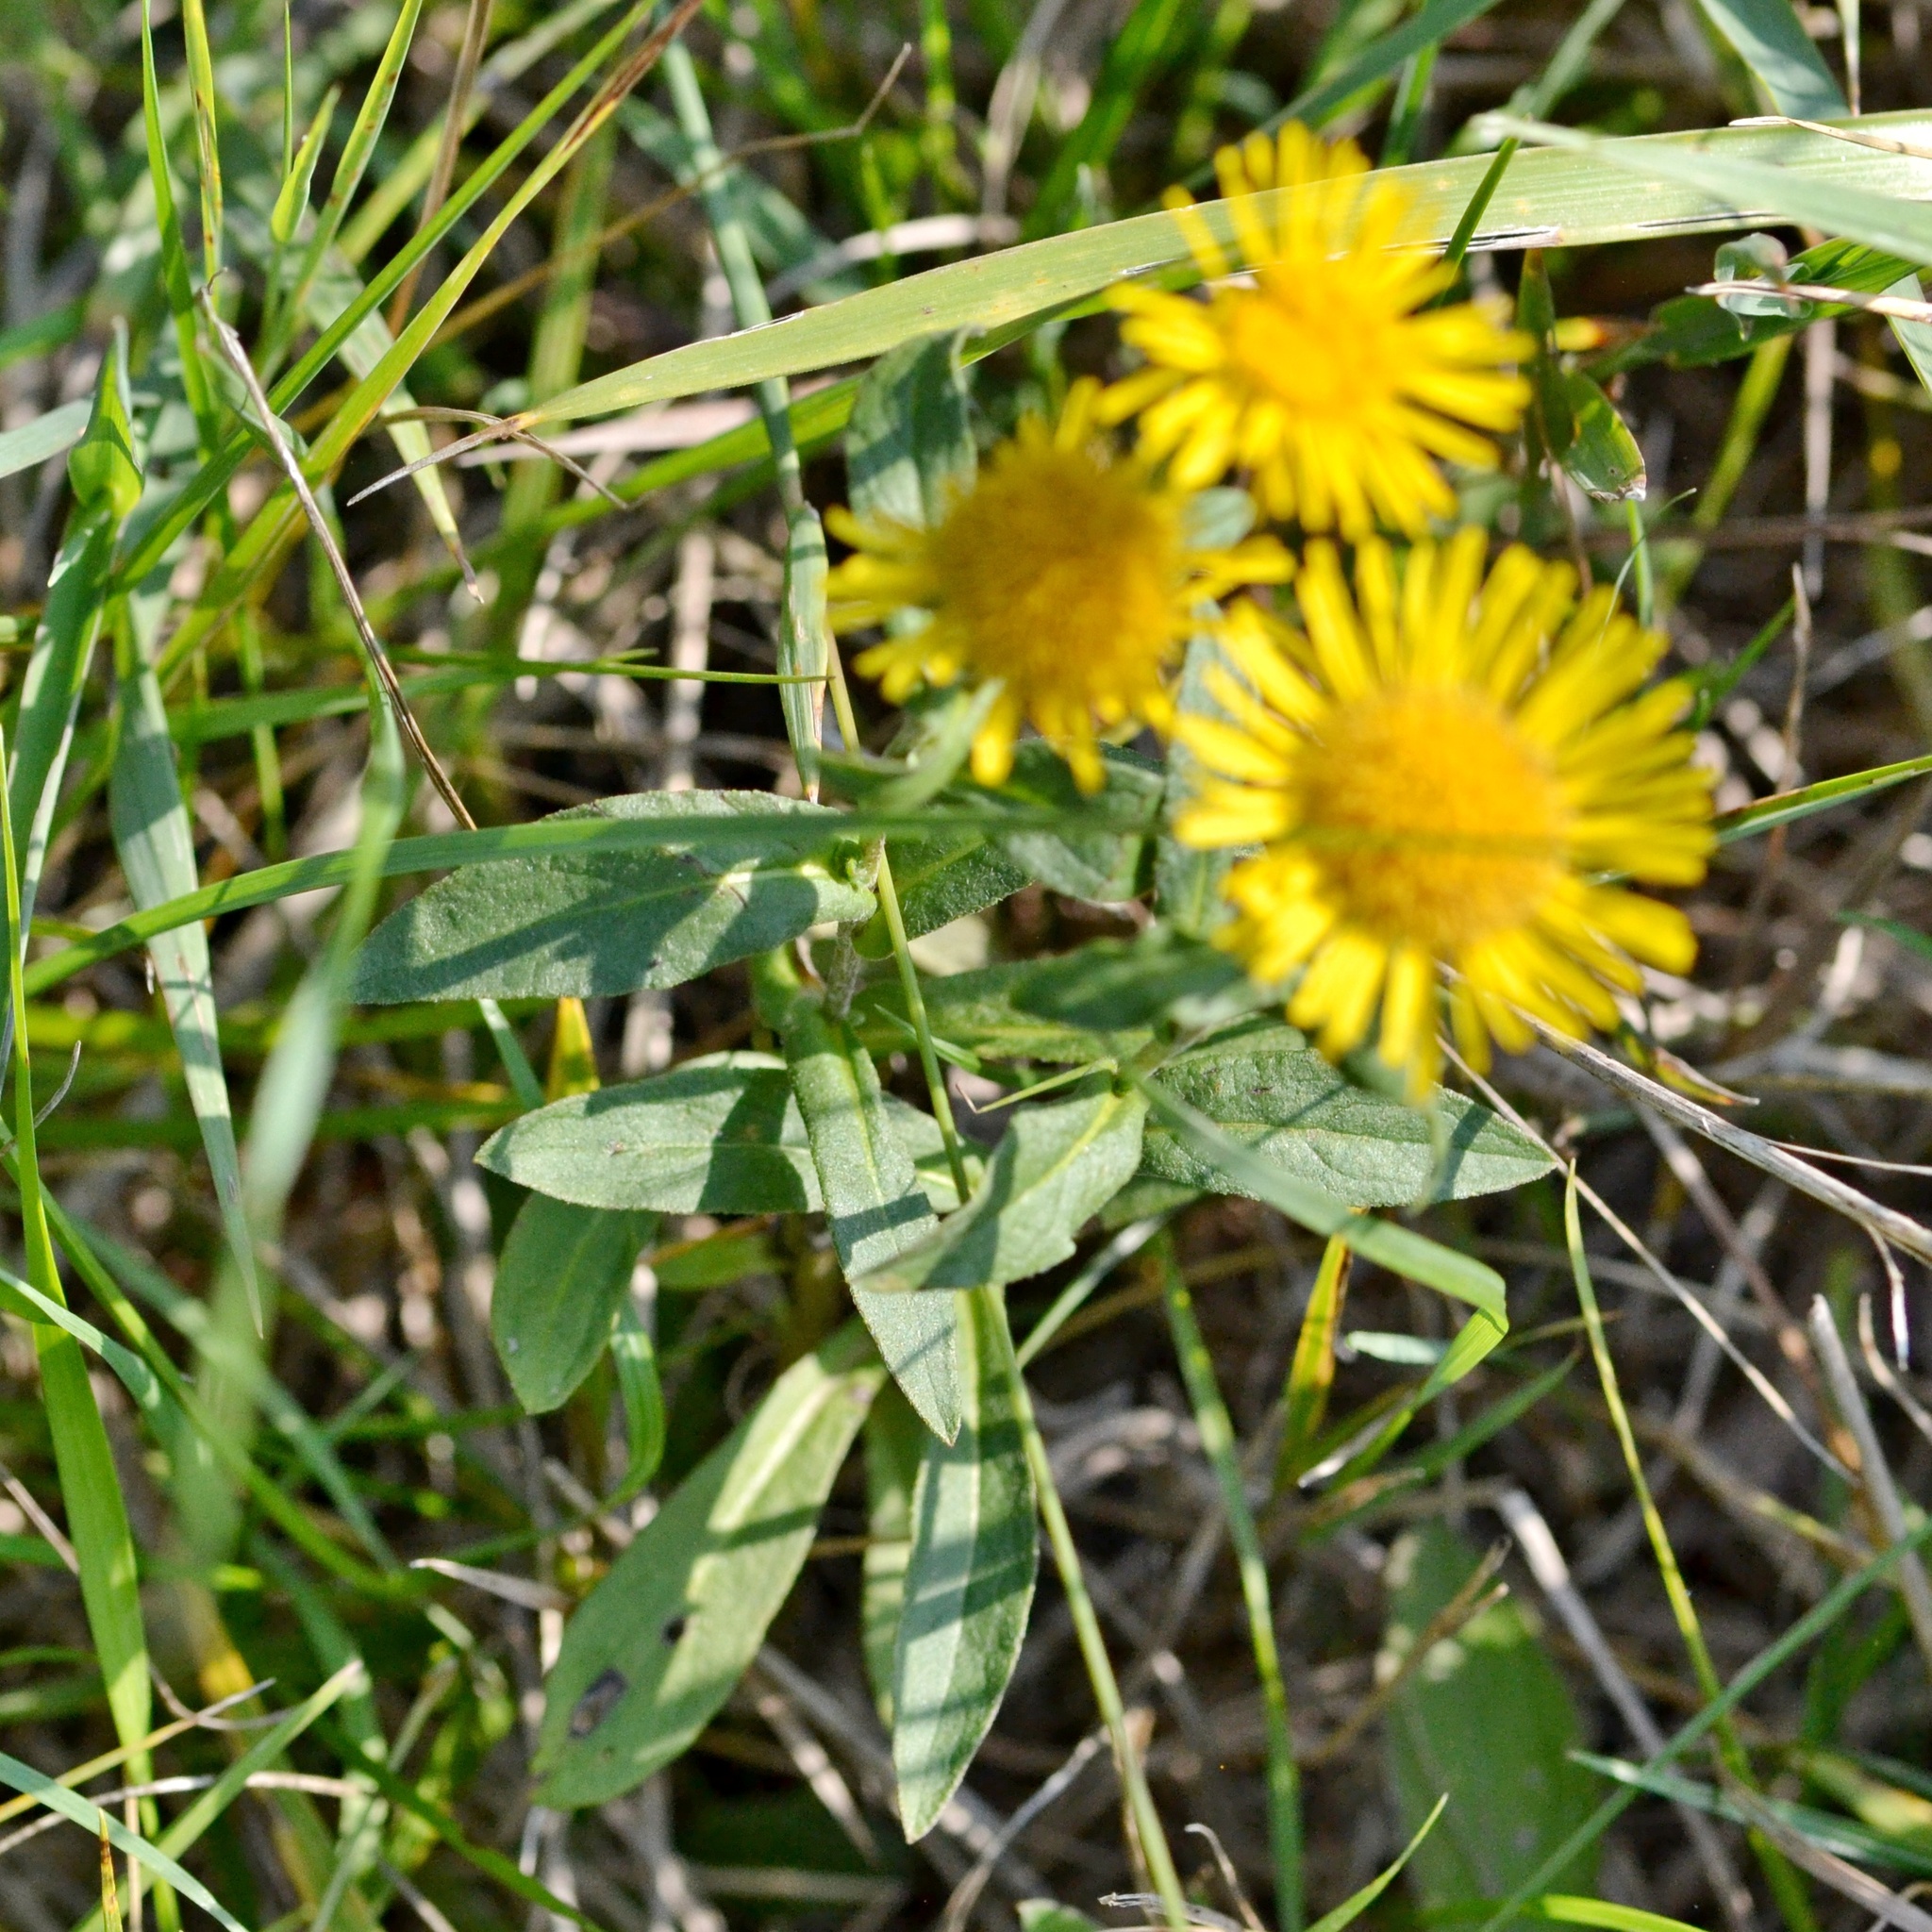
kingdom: Plantae
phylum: Tracheophyta
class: Magnoliopsida
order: Asterales
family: Asteraceae
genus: Pentanema
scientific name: Pentanema britannicum
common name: British elecampane
